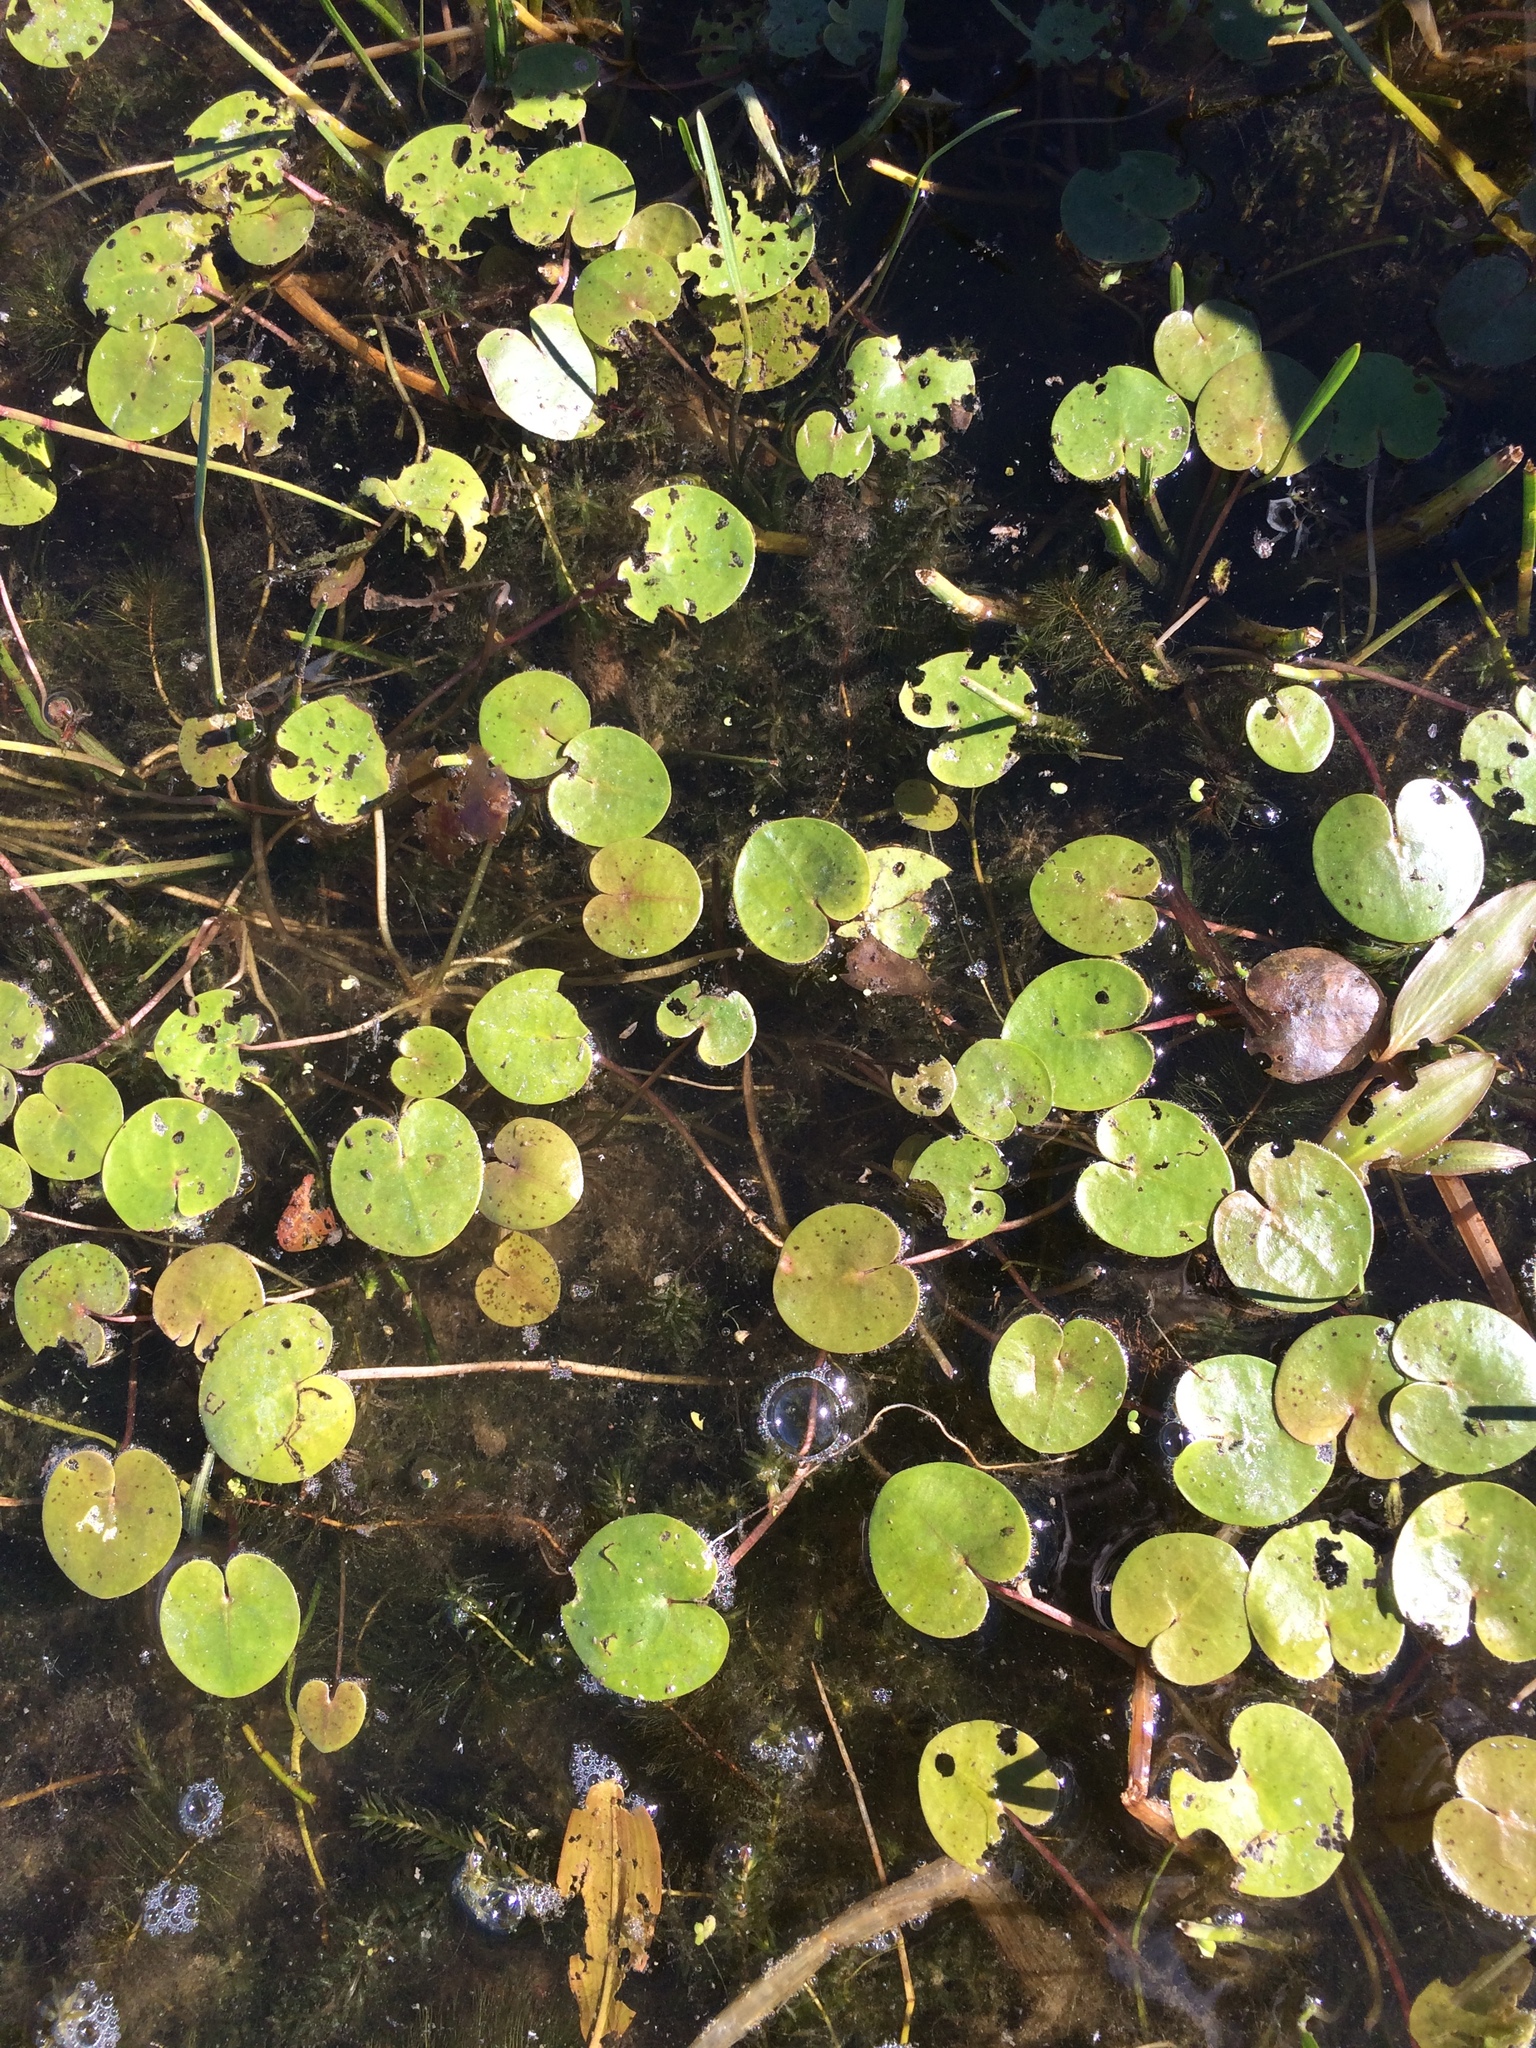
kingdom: Plantae
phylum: Tracheophyta
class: Liliopsida
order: Alismatales
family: Hydrocharitaceae
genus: Hydrocharis
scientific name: Hydrocharis morsus-ranae
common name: Frogbit
